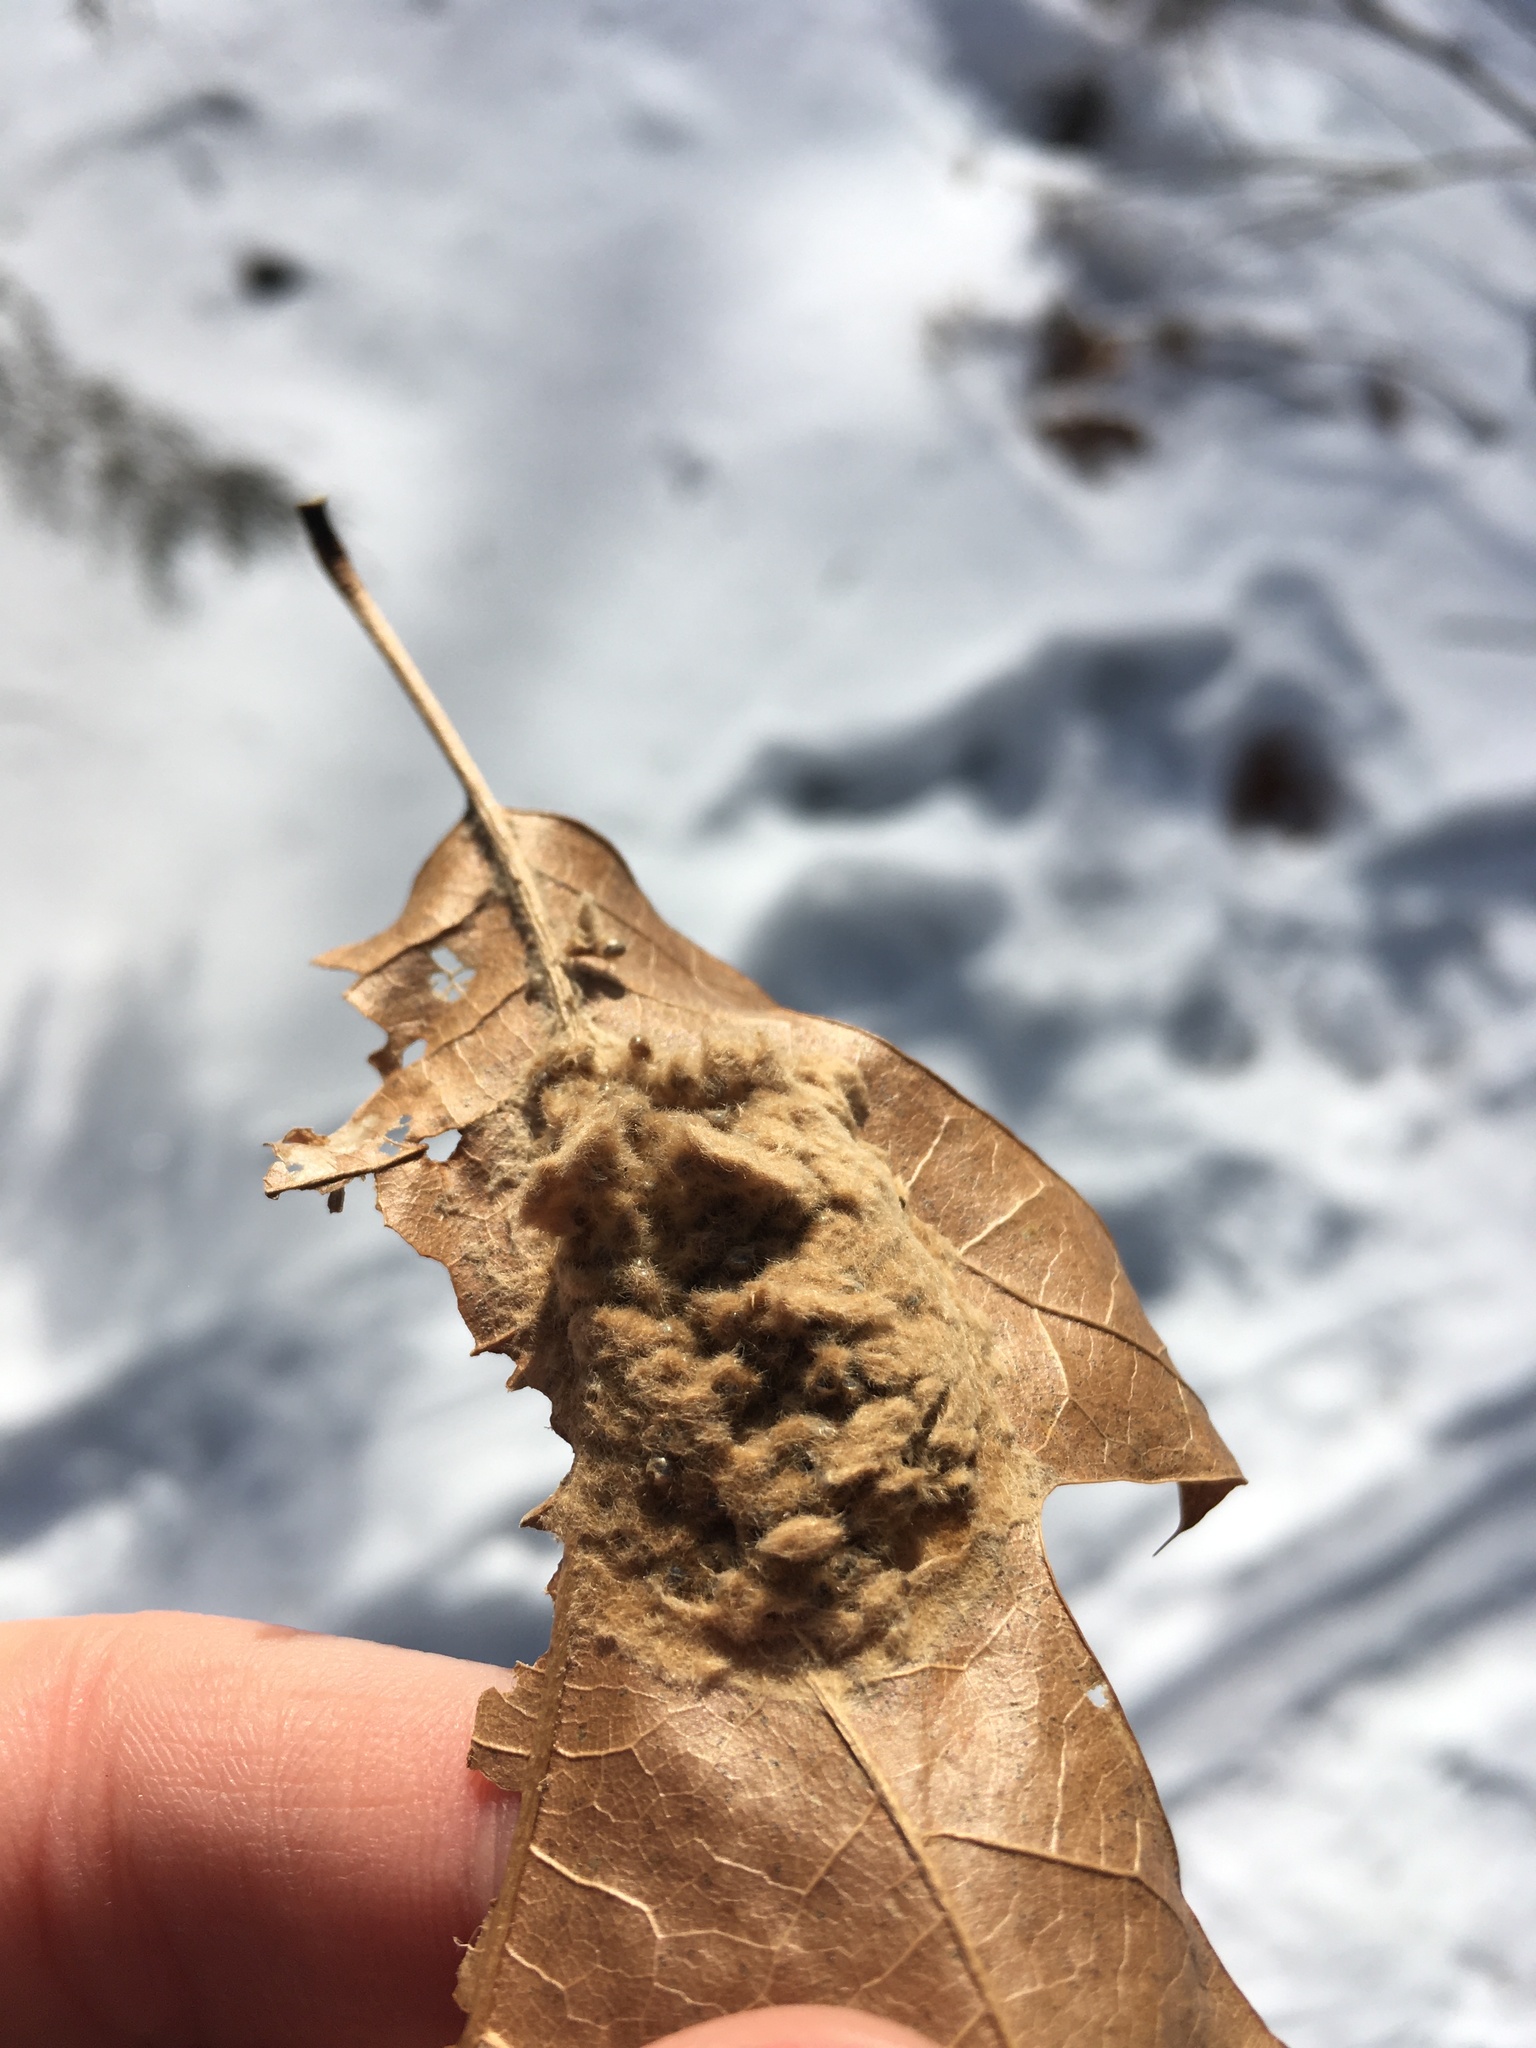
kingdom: Animalia
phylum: Arthropoda
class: Insecta
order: Lepidoptera
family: Erebidae
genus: Lymantria
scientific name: Lymantria dispar
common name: Gypsy moth
